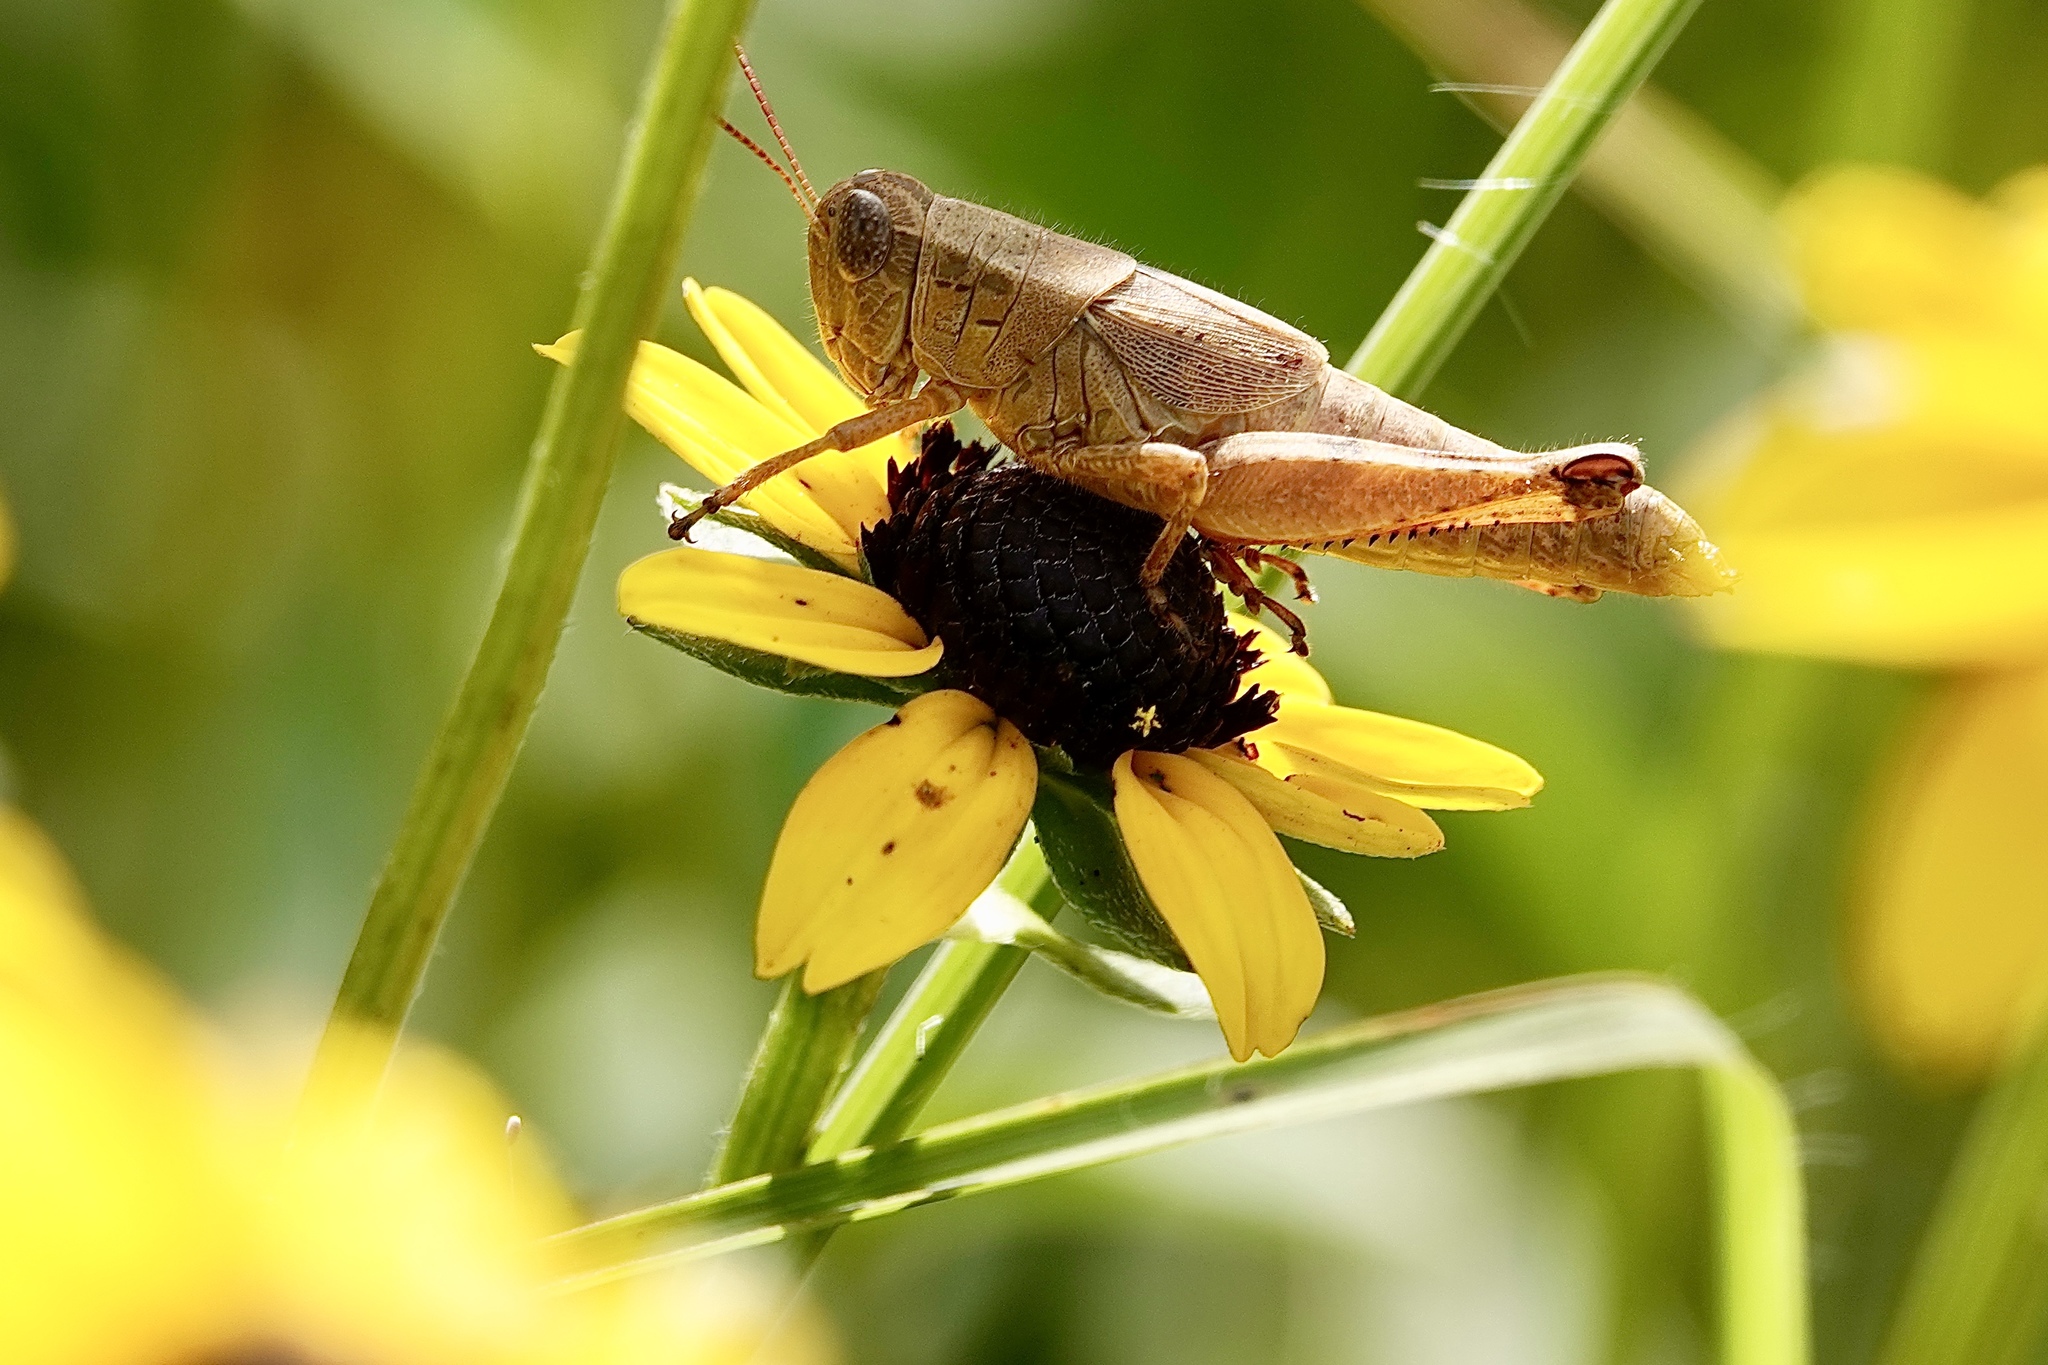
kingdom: Animalia
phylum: Arthropoda
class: Insecta
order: Orthoptera
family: Acrididae
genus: Melanoplus
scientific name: Melanoplus scudderi
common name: Scudder's short-winged locust
